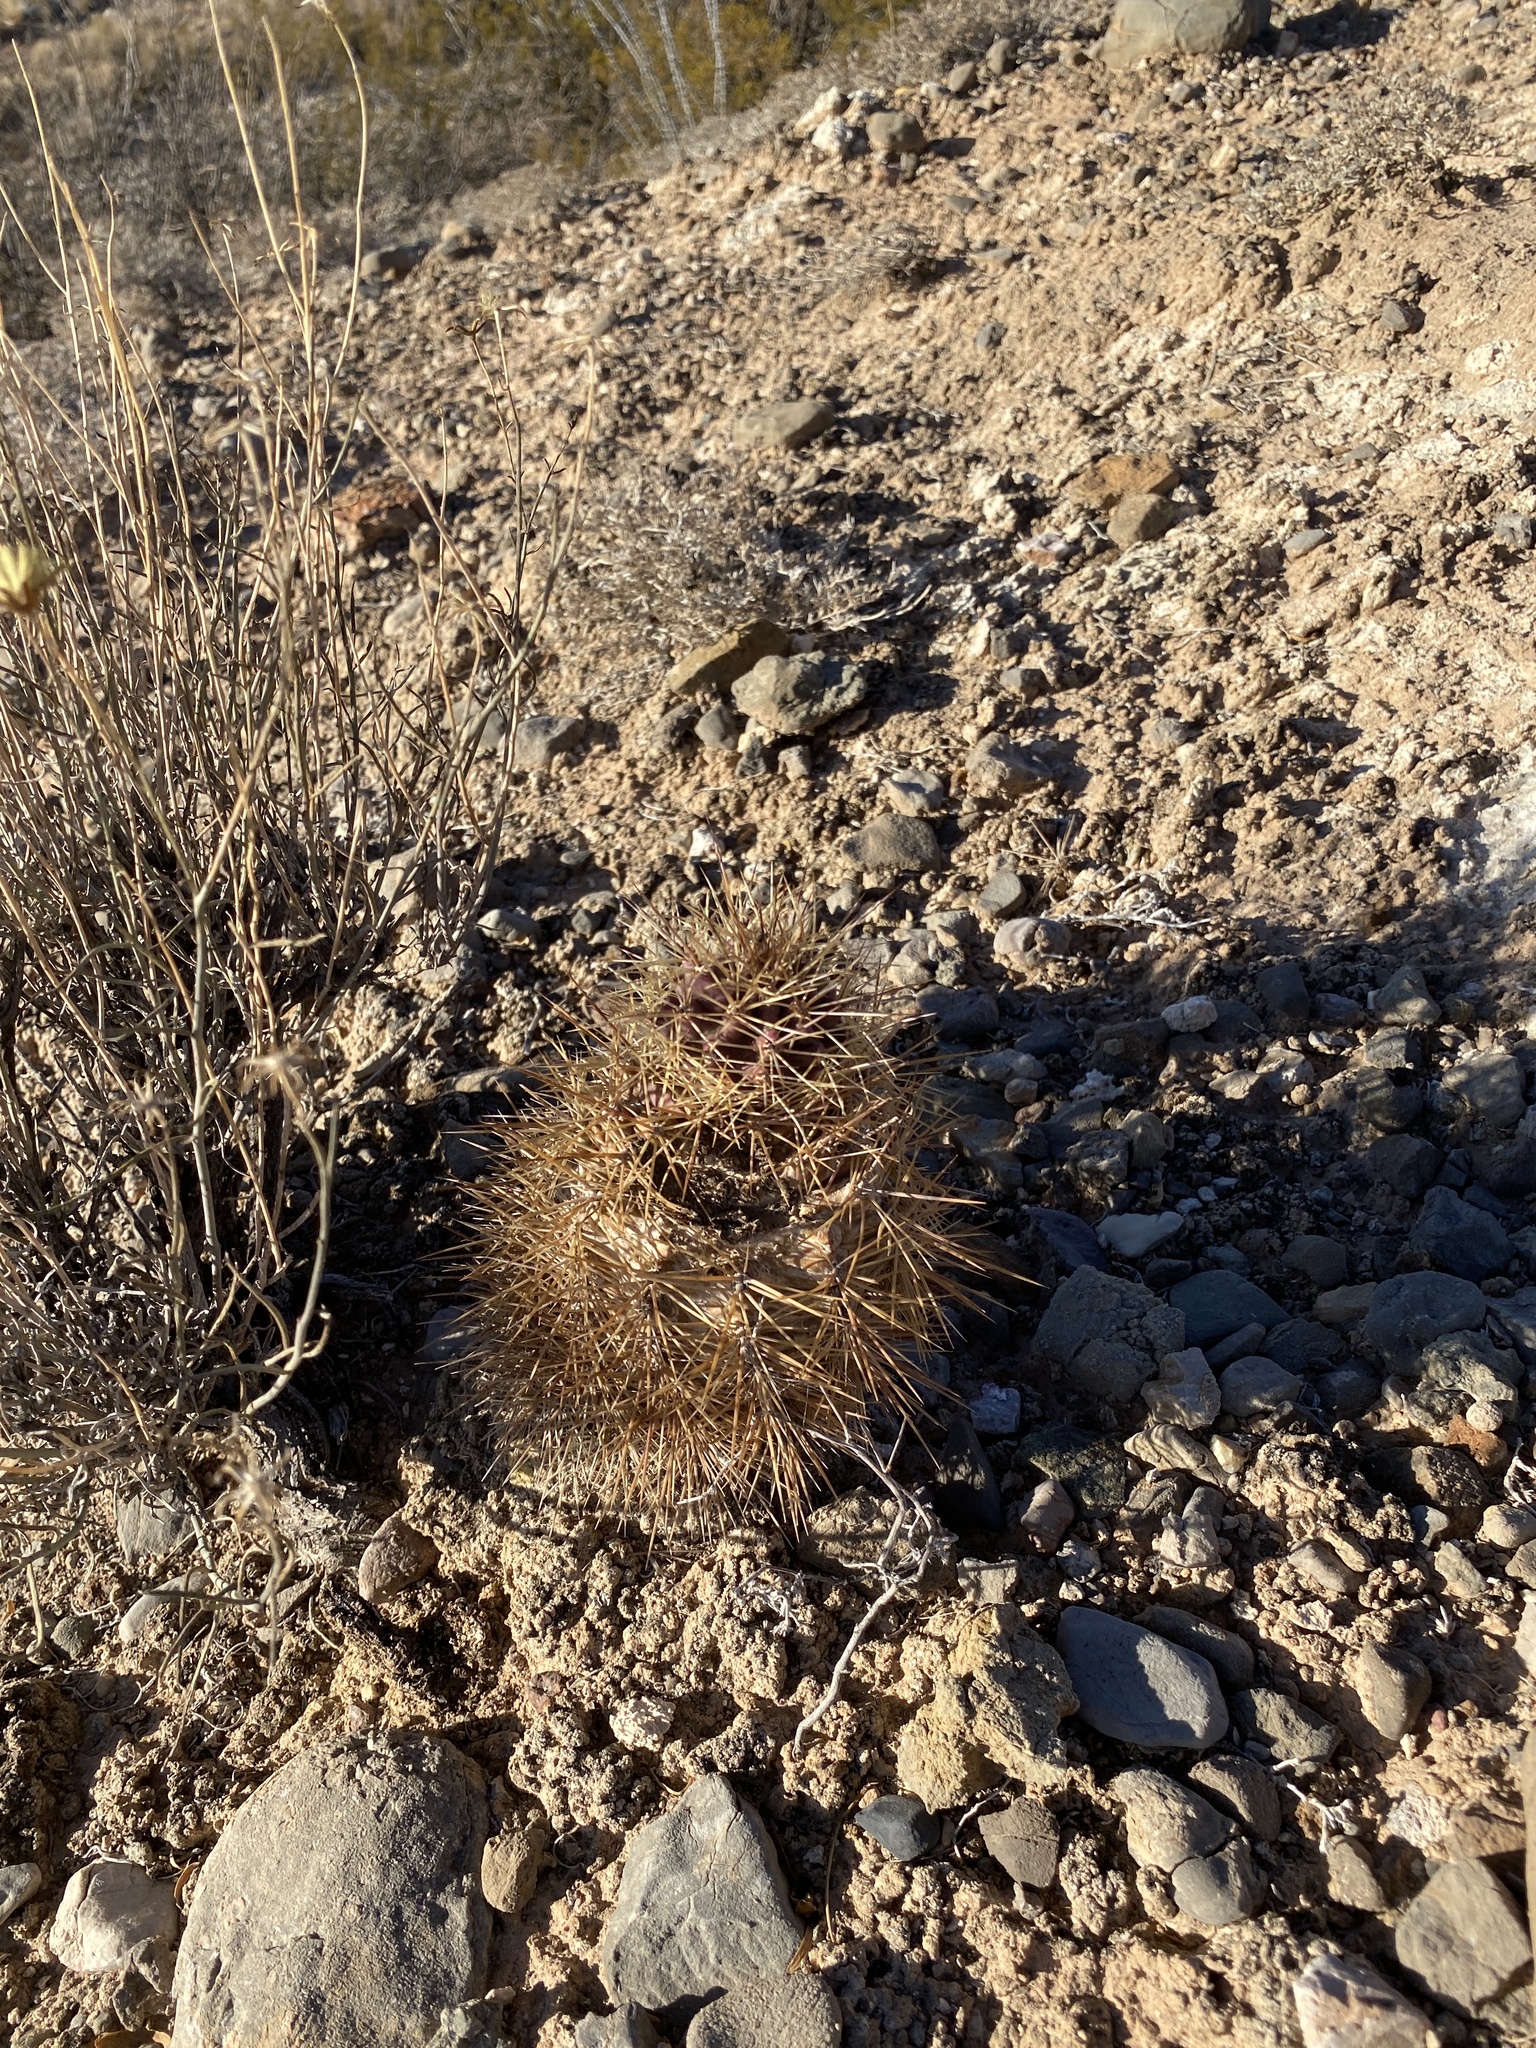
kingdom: Plantae
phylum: Tracheophyta
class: Magnoliopsida
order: Caryophyllales
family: Cactaceae
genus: Echinocereus
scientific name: Echinocereus coccineus
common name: Scarlet hedgehog cactus
